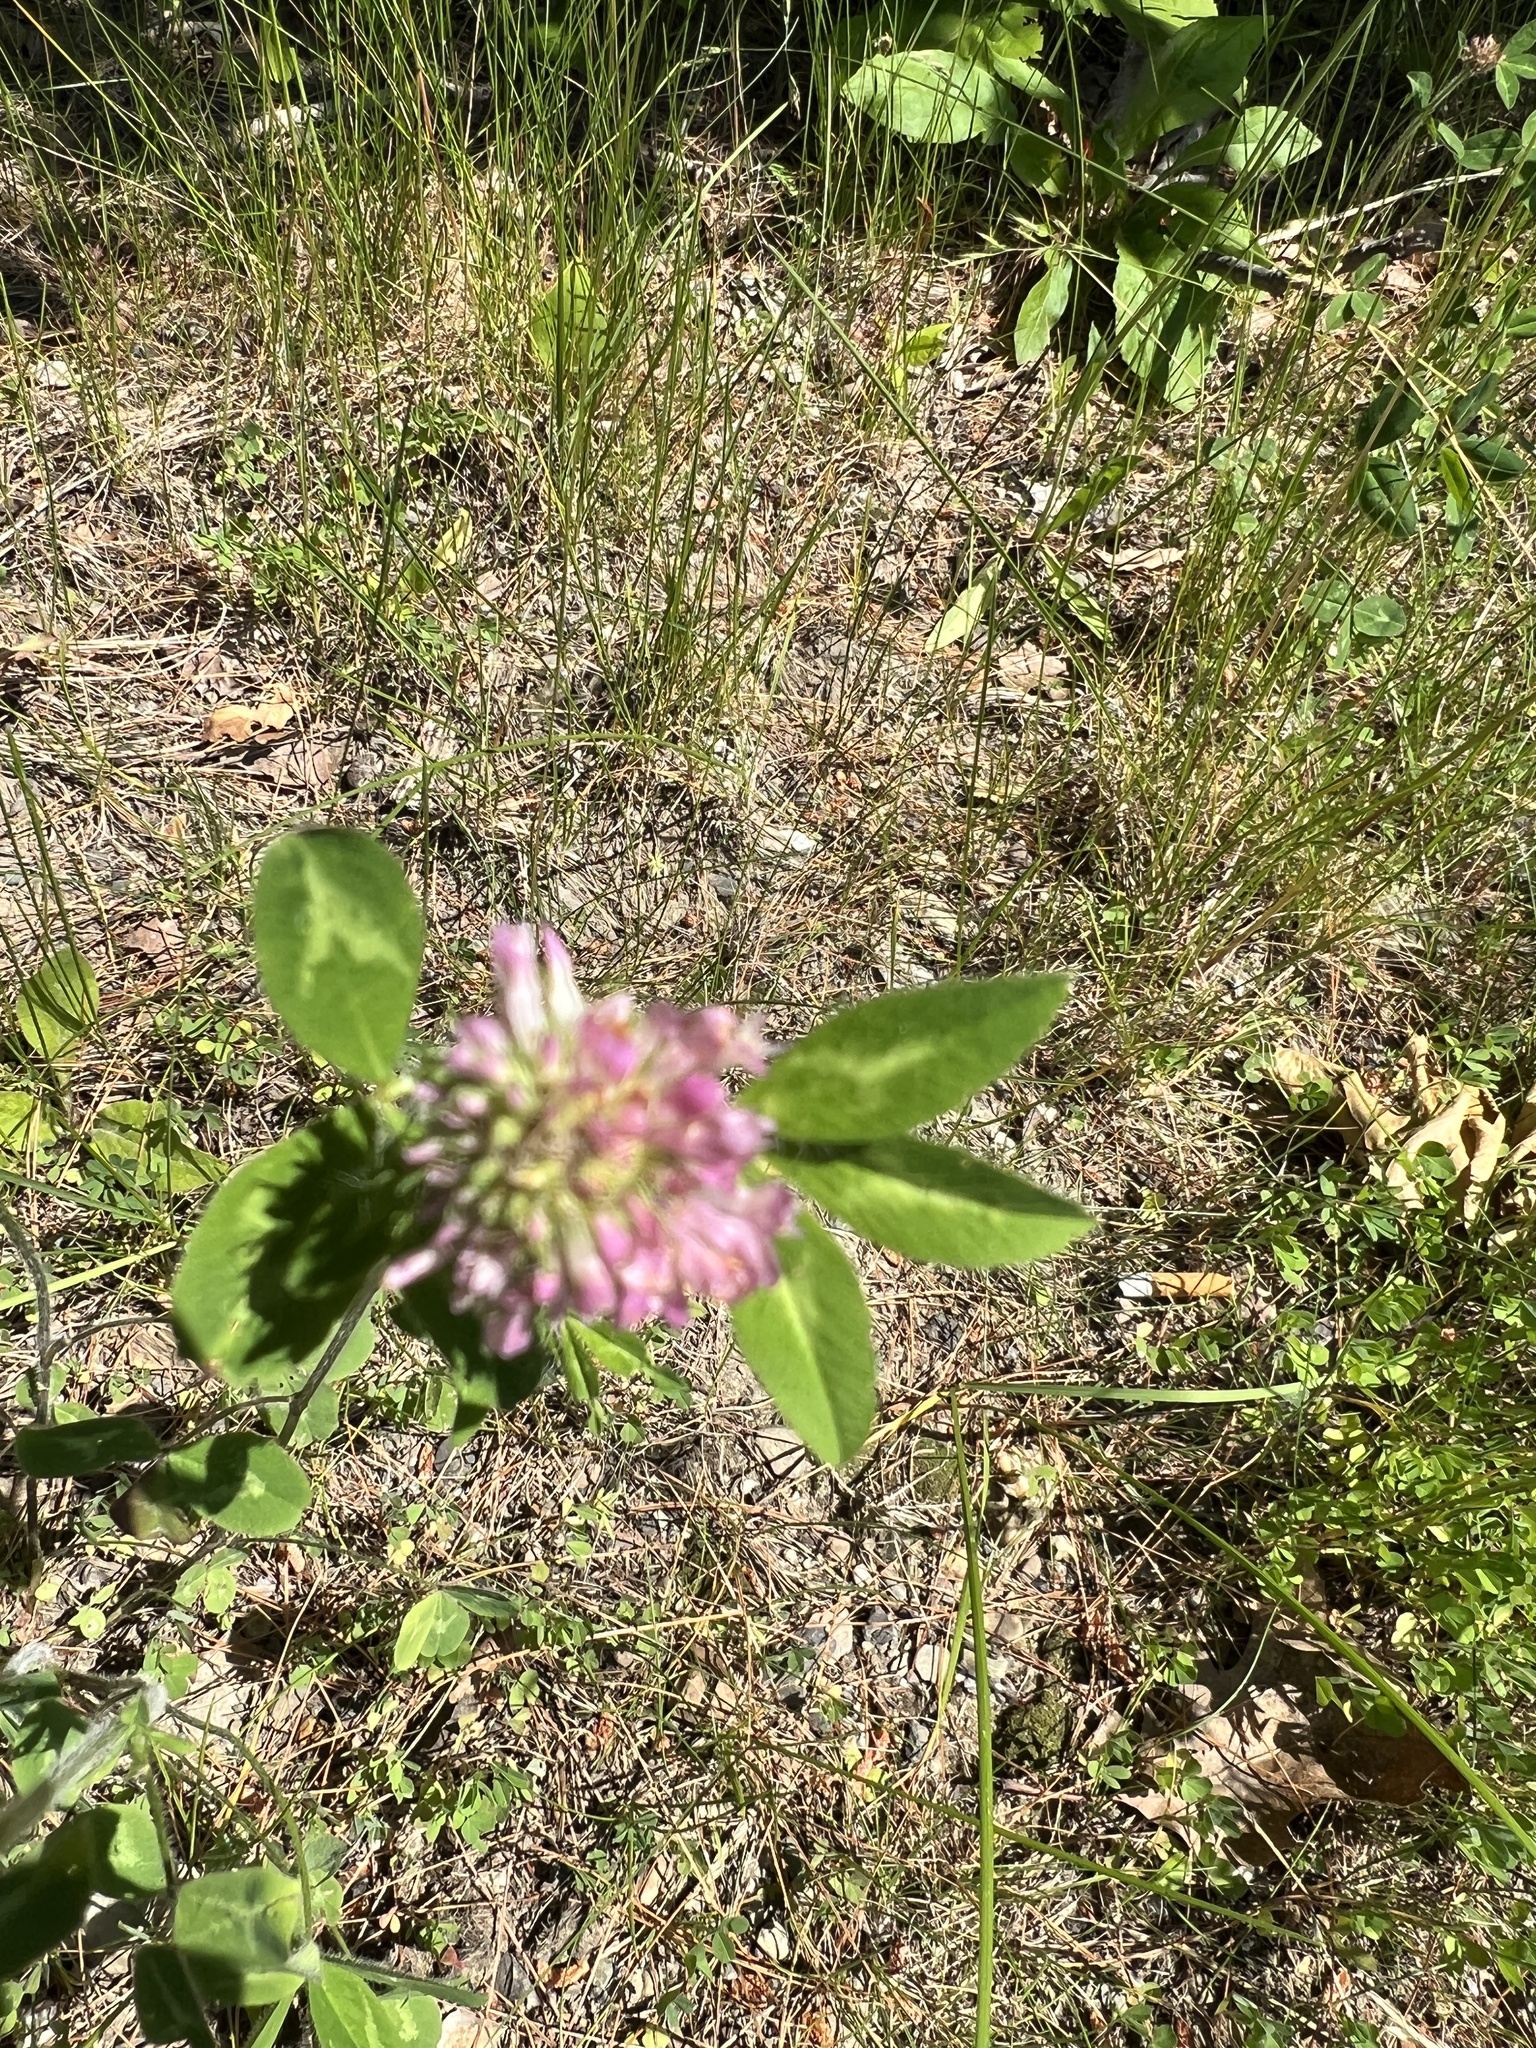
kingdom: Plantae
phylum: Tracheophyta
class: Magnoliopsida
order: Fabales
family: Fabaceae
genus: Trifolium
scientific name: Trifolium pratense
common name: Red clover
